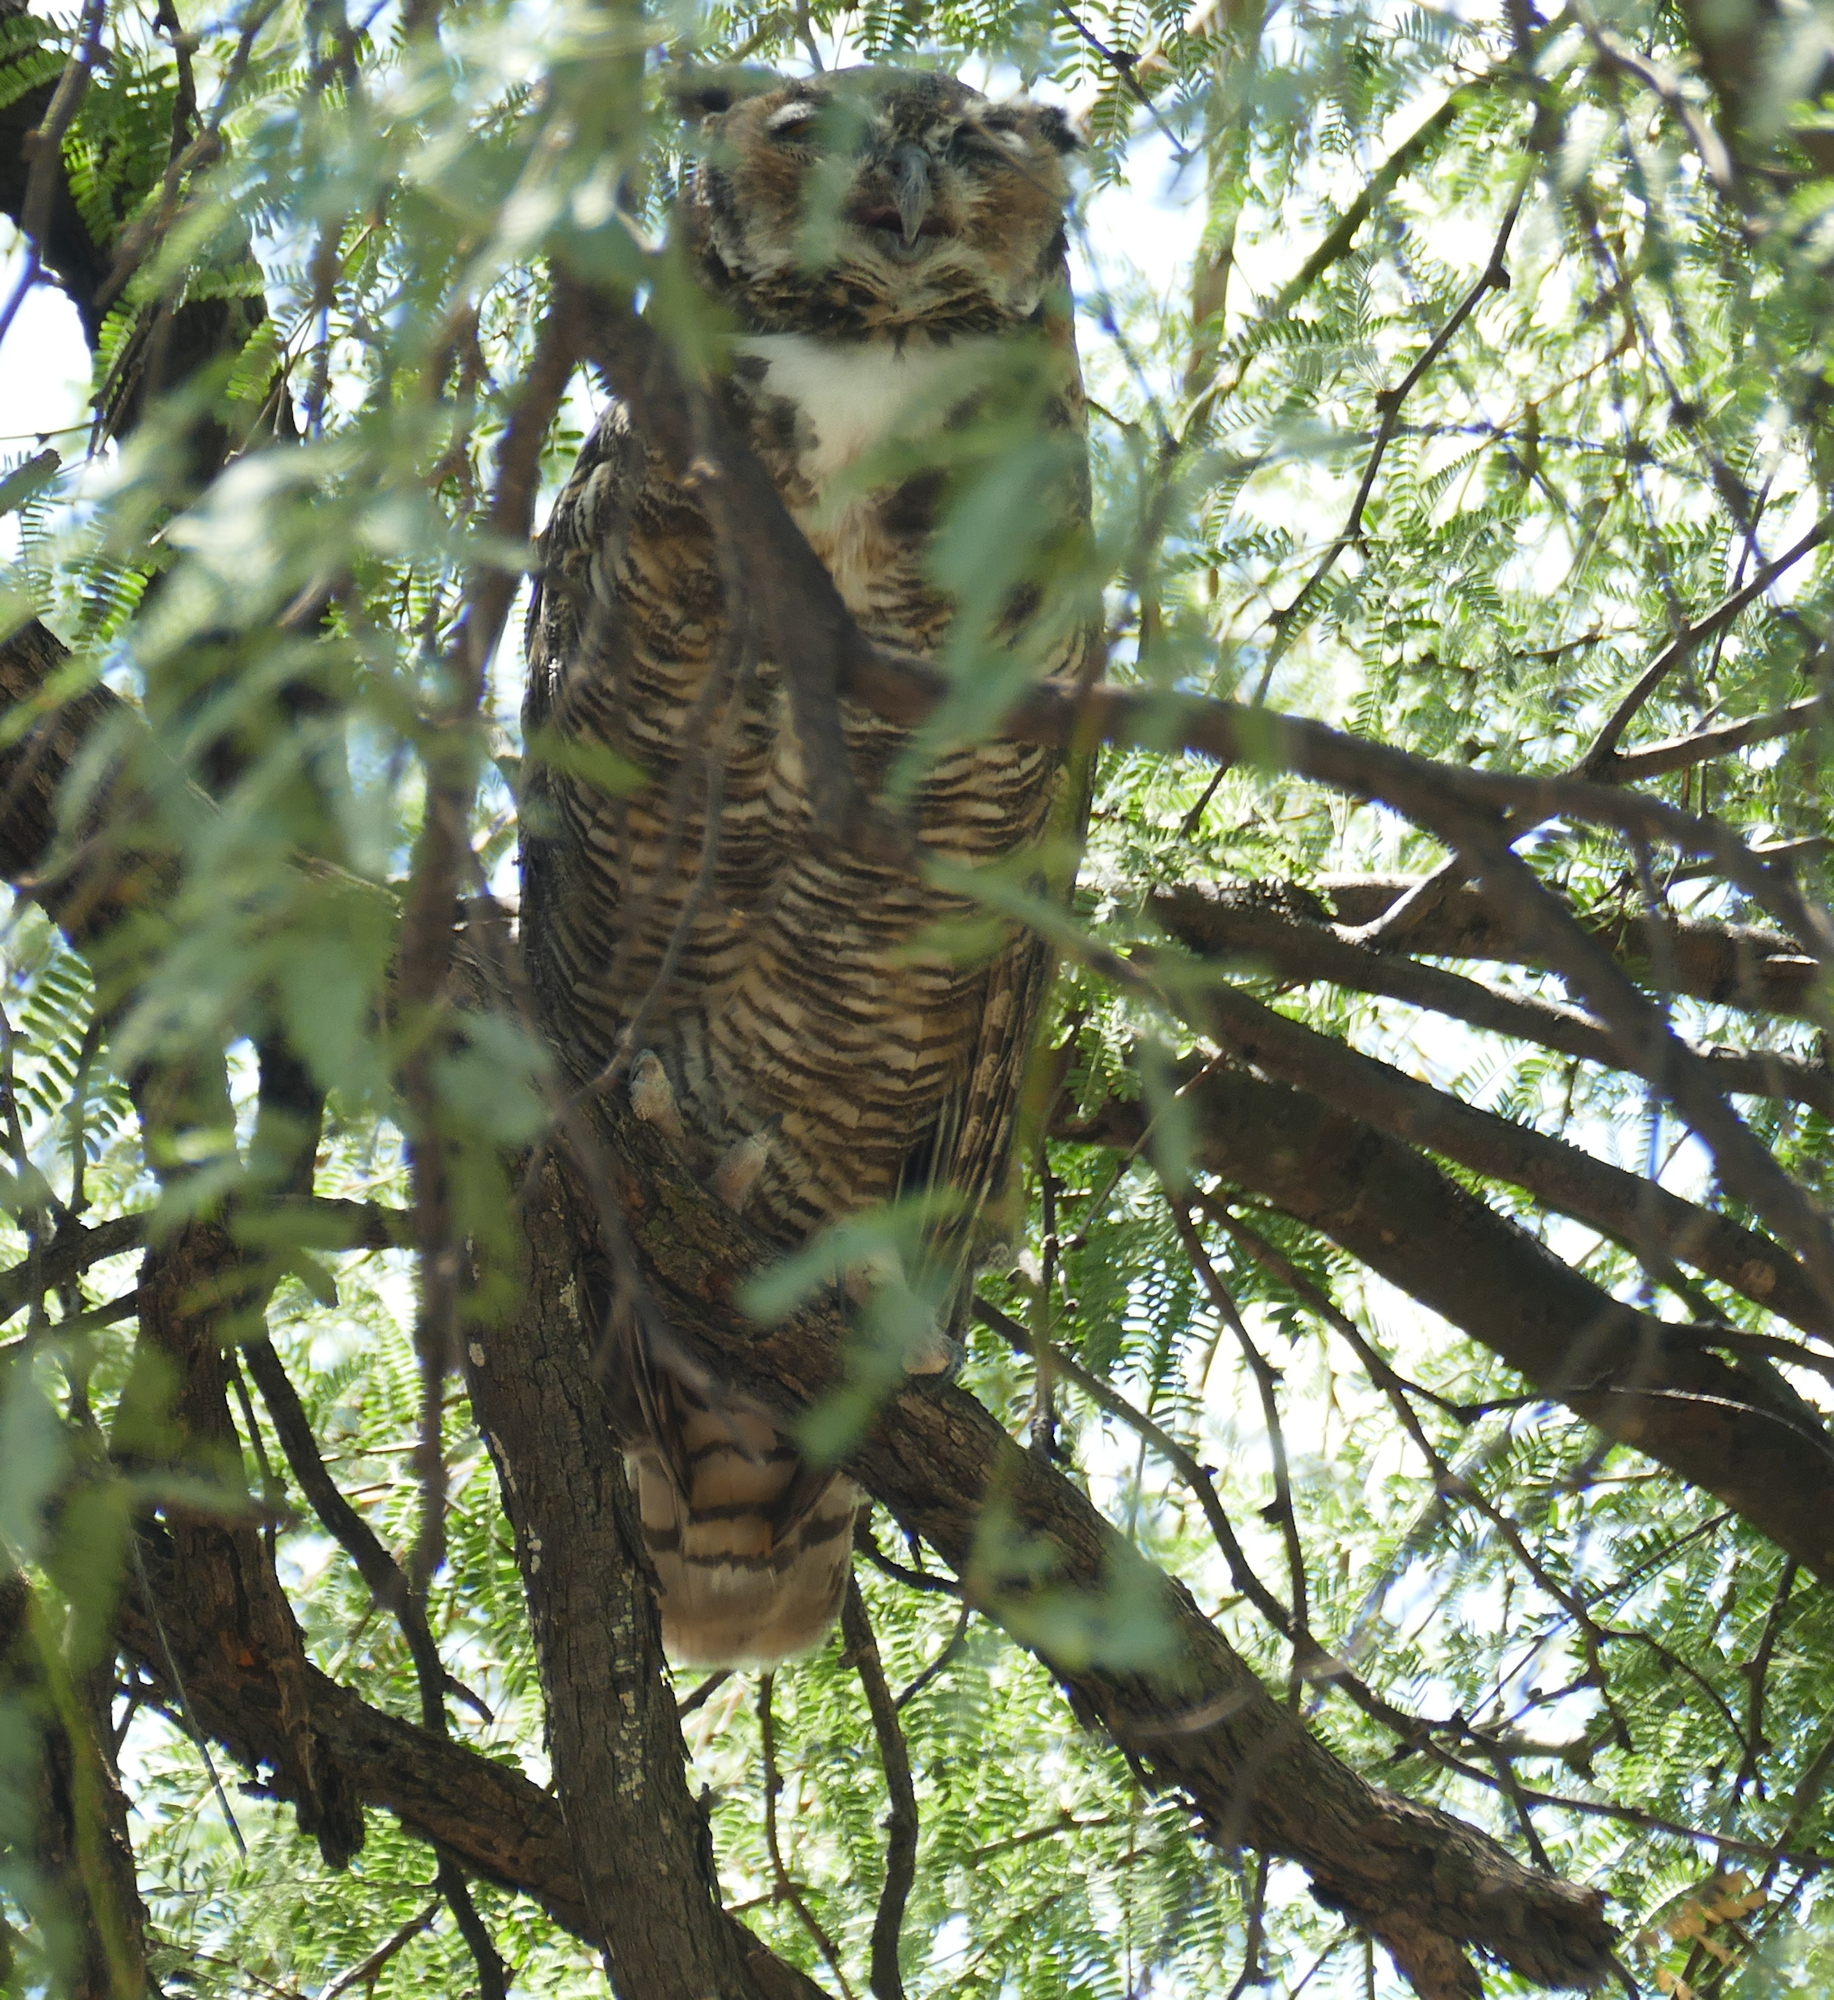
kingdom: Animalia
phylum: Chordata
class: Aves
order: Strigiformes
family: Strigidae
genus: Bubo
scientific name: Bubo virginianus
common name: Great horned owl
